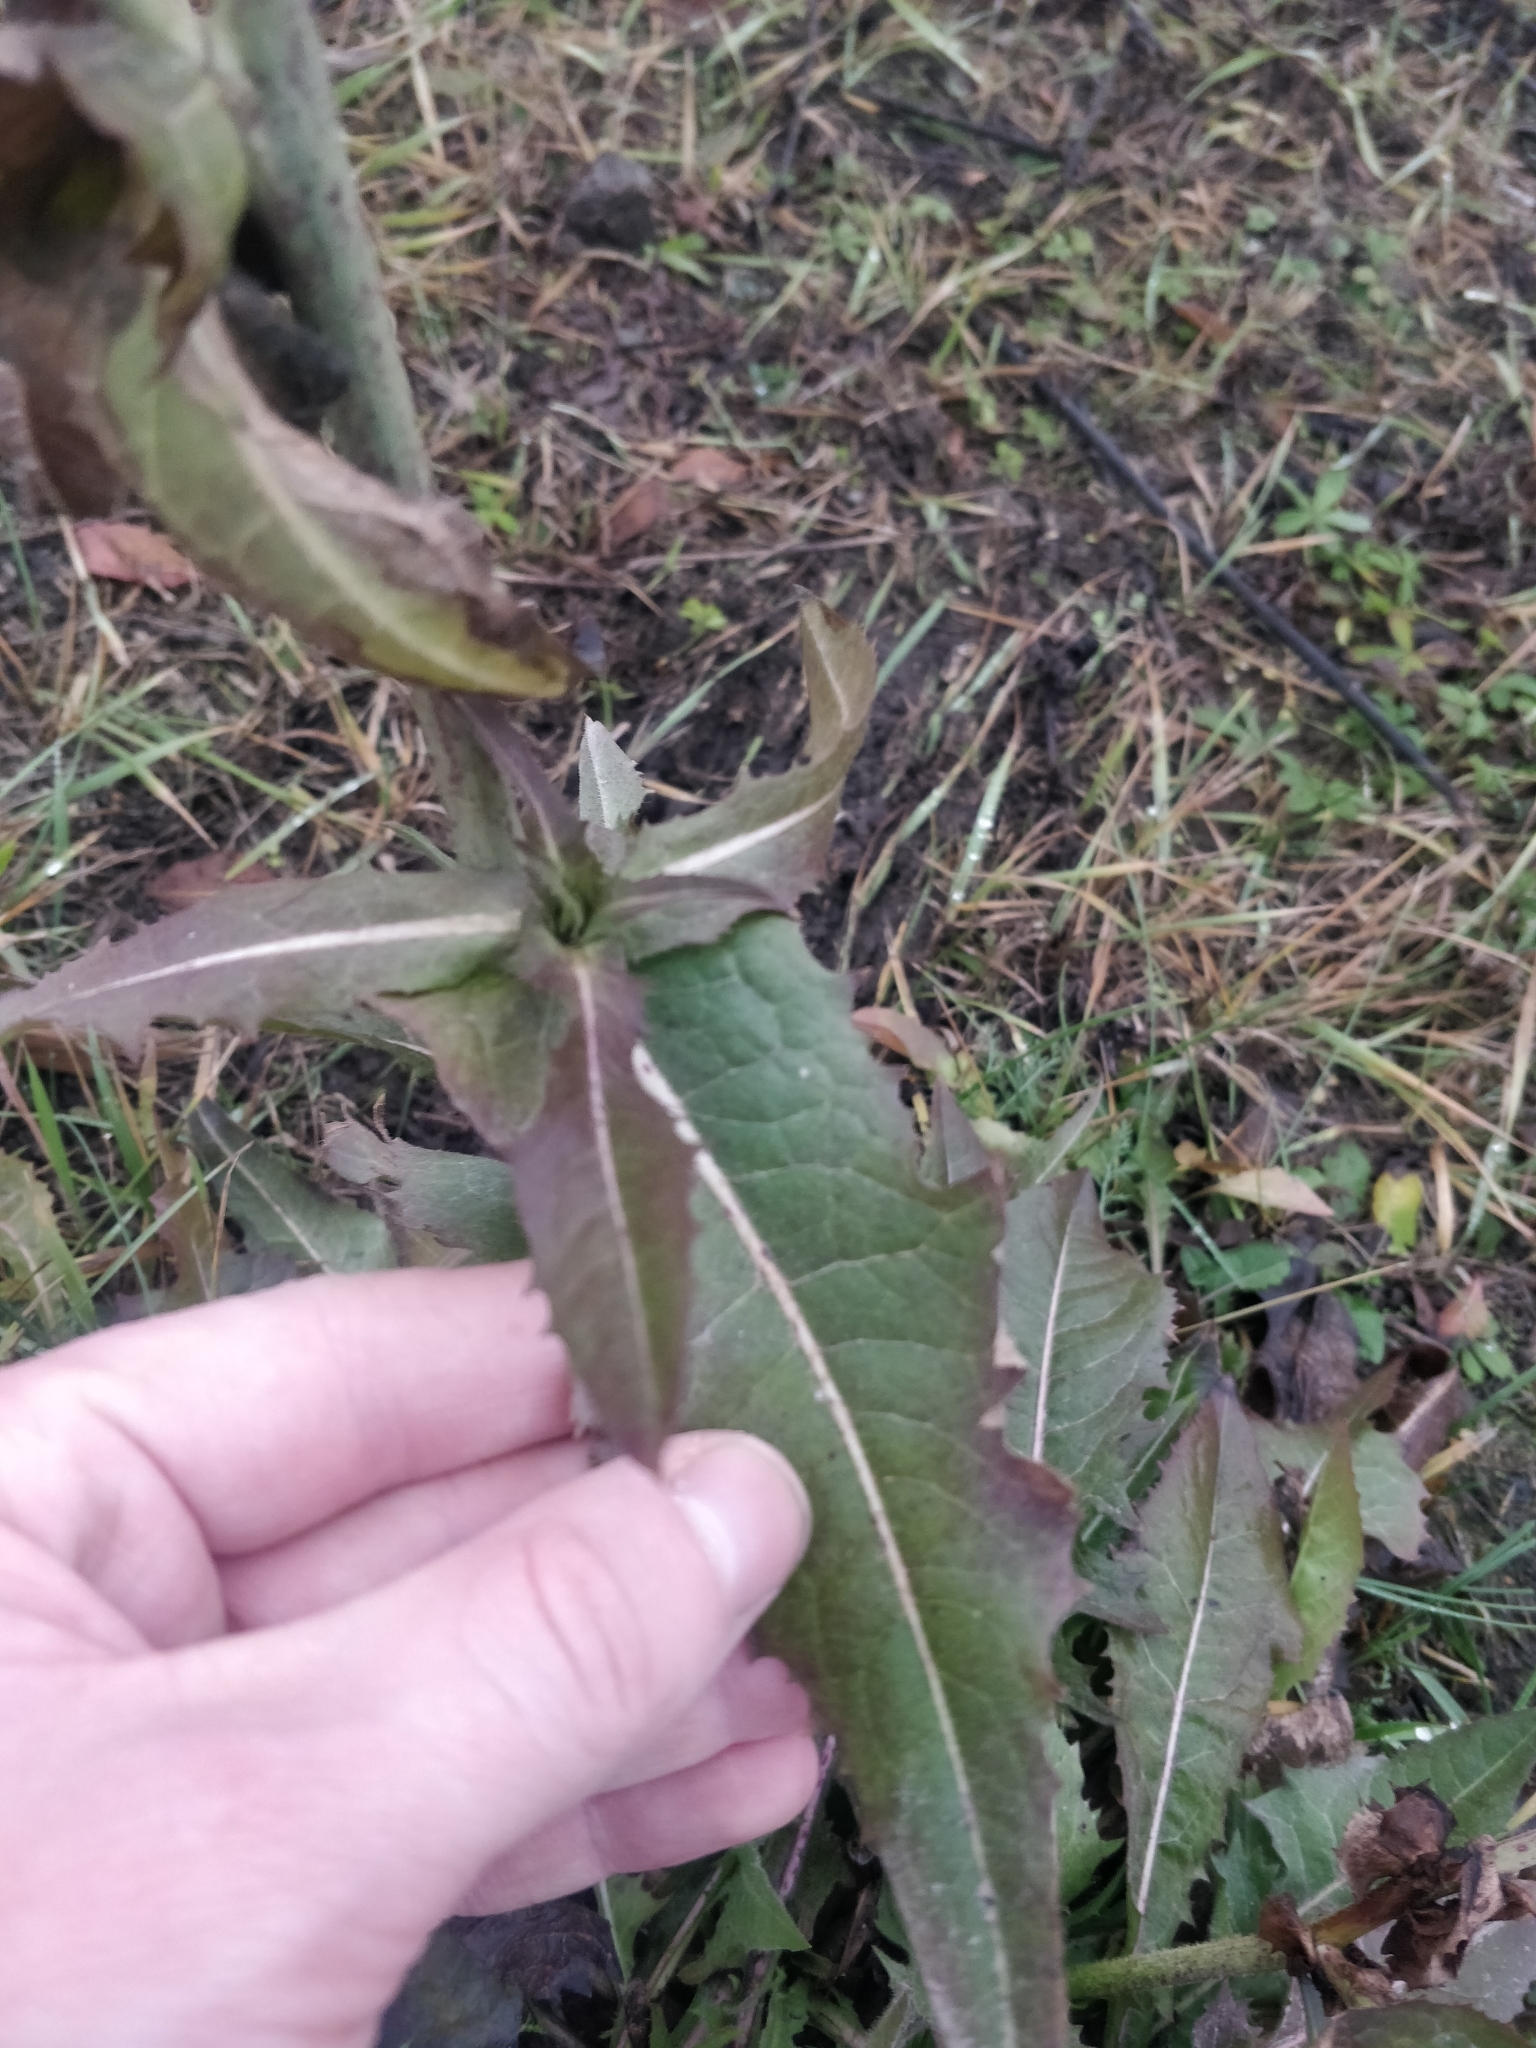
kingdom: Plantae
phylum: Tracheophyta
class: Magnoliopsida
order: Asterales
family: Asteraceae
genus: Cichorium
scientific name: Cichorium intybus
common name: Chicory
